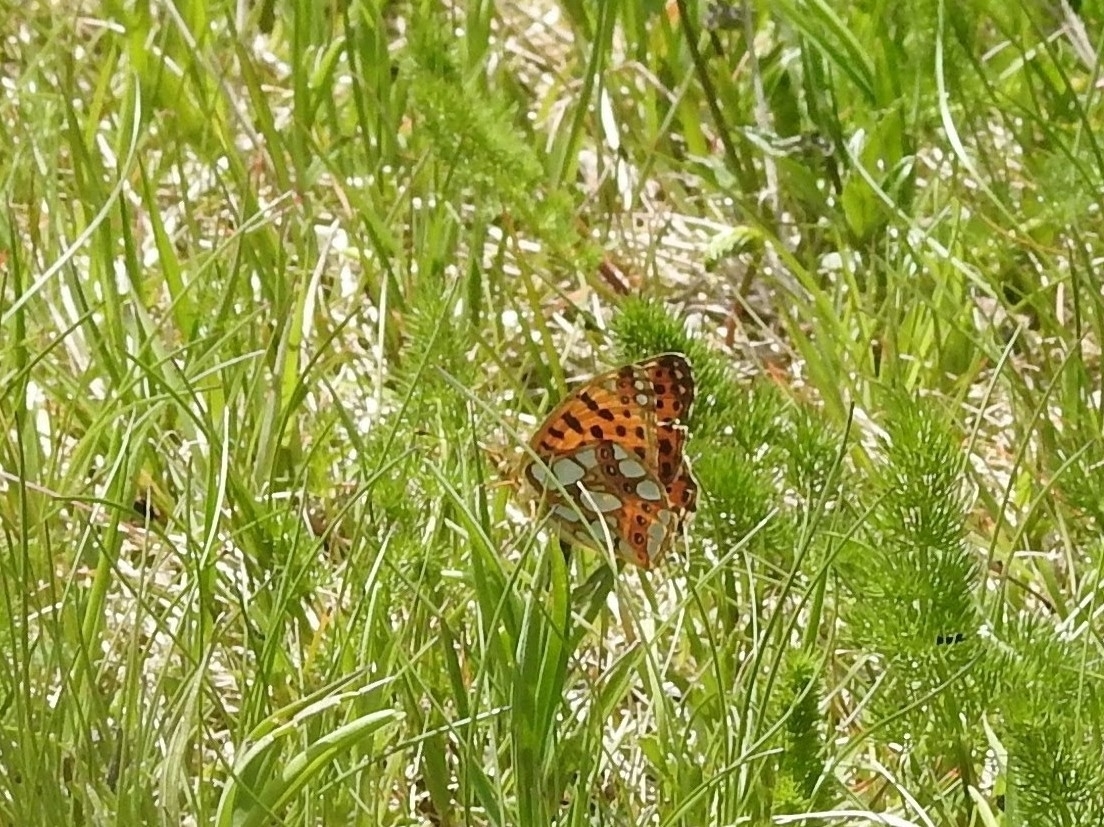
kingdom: Animalia
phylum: Arthropoda
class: Insecta
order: Lepidoptera
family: Nymphalidae
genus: Issoria
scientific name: Issoria lathonia
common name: Queen of spain fritillary
